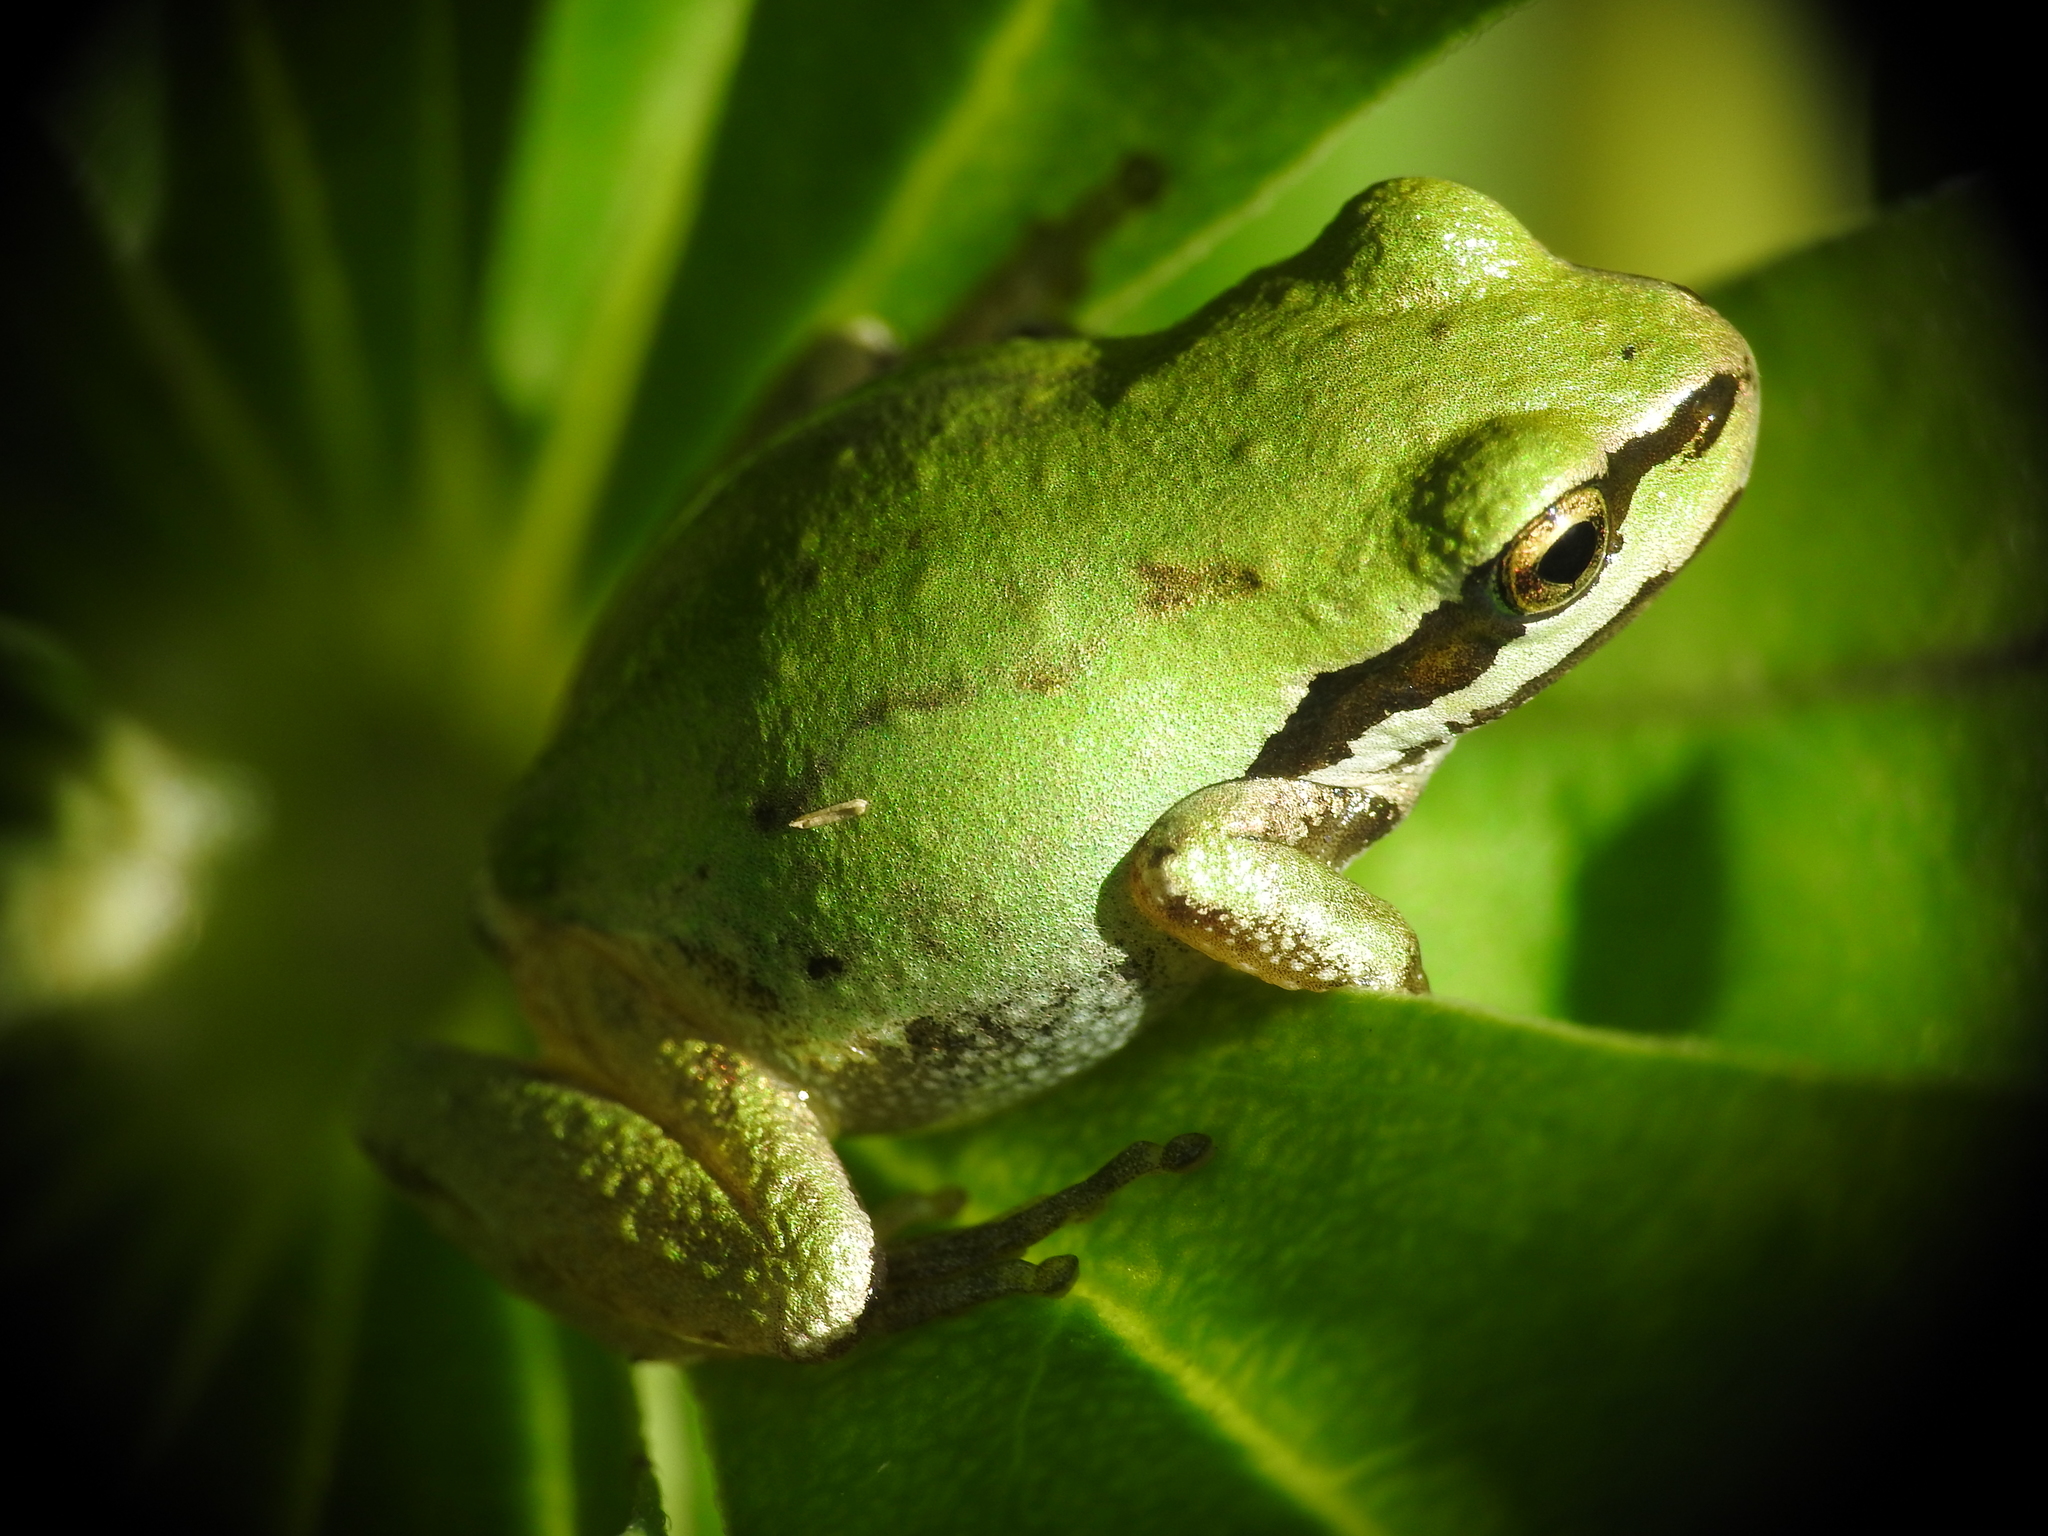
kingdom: Animalia
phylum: Chordata
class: Amphibia
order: Anura
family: Hylidae
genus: Pseudacris
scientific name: Pseudacris regilla
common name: Pacific chorus frog
